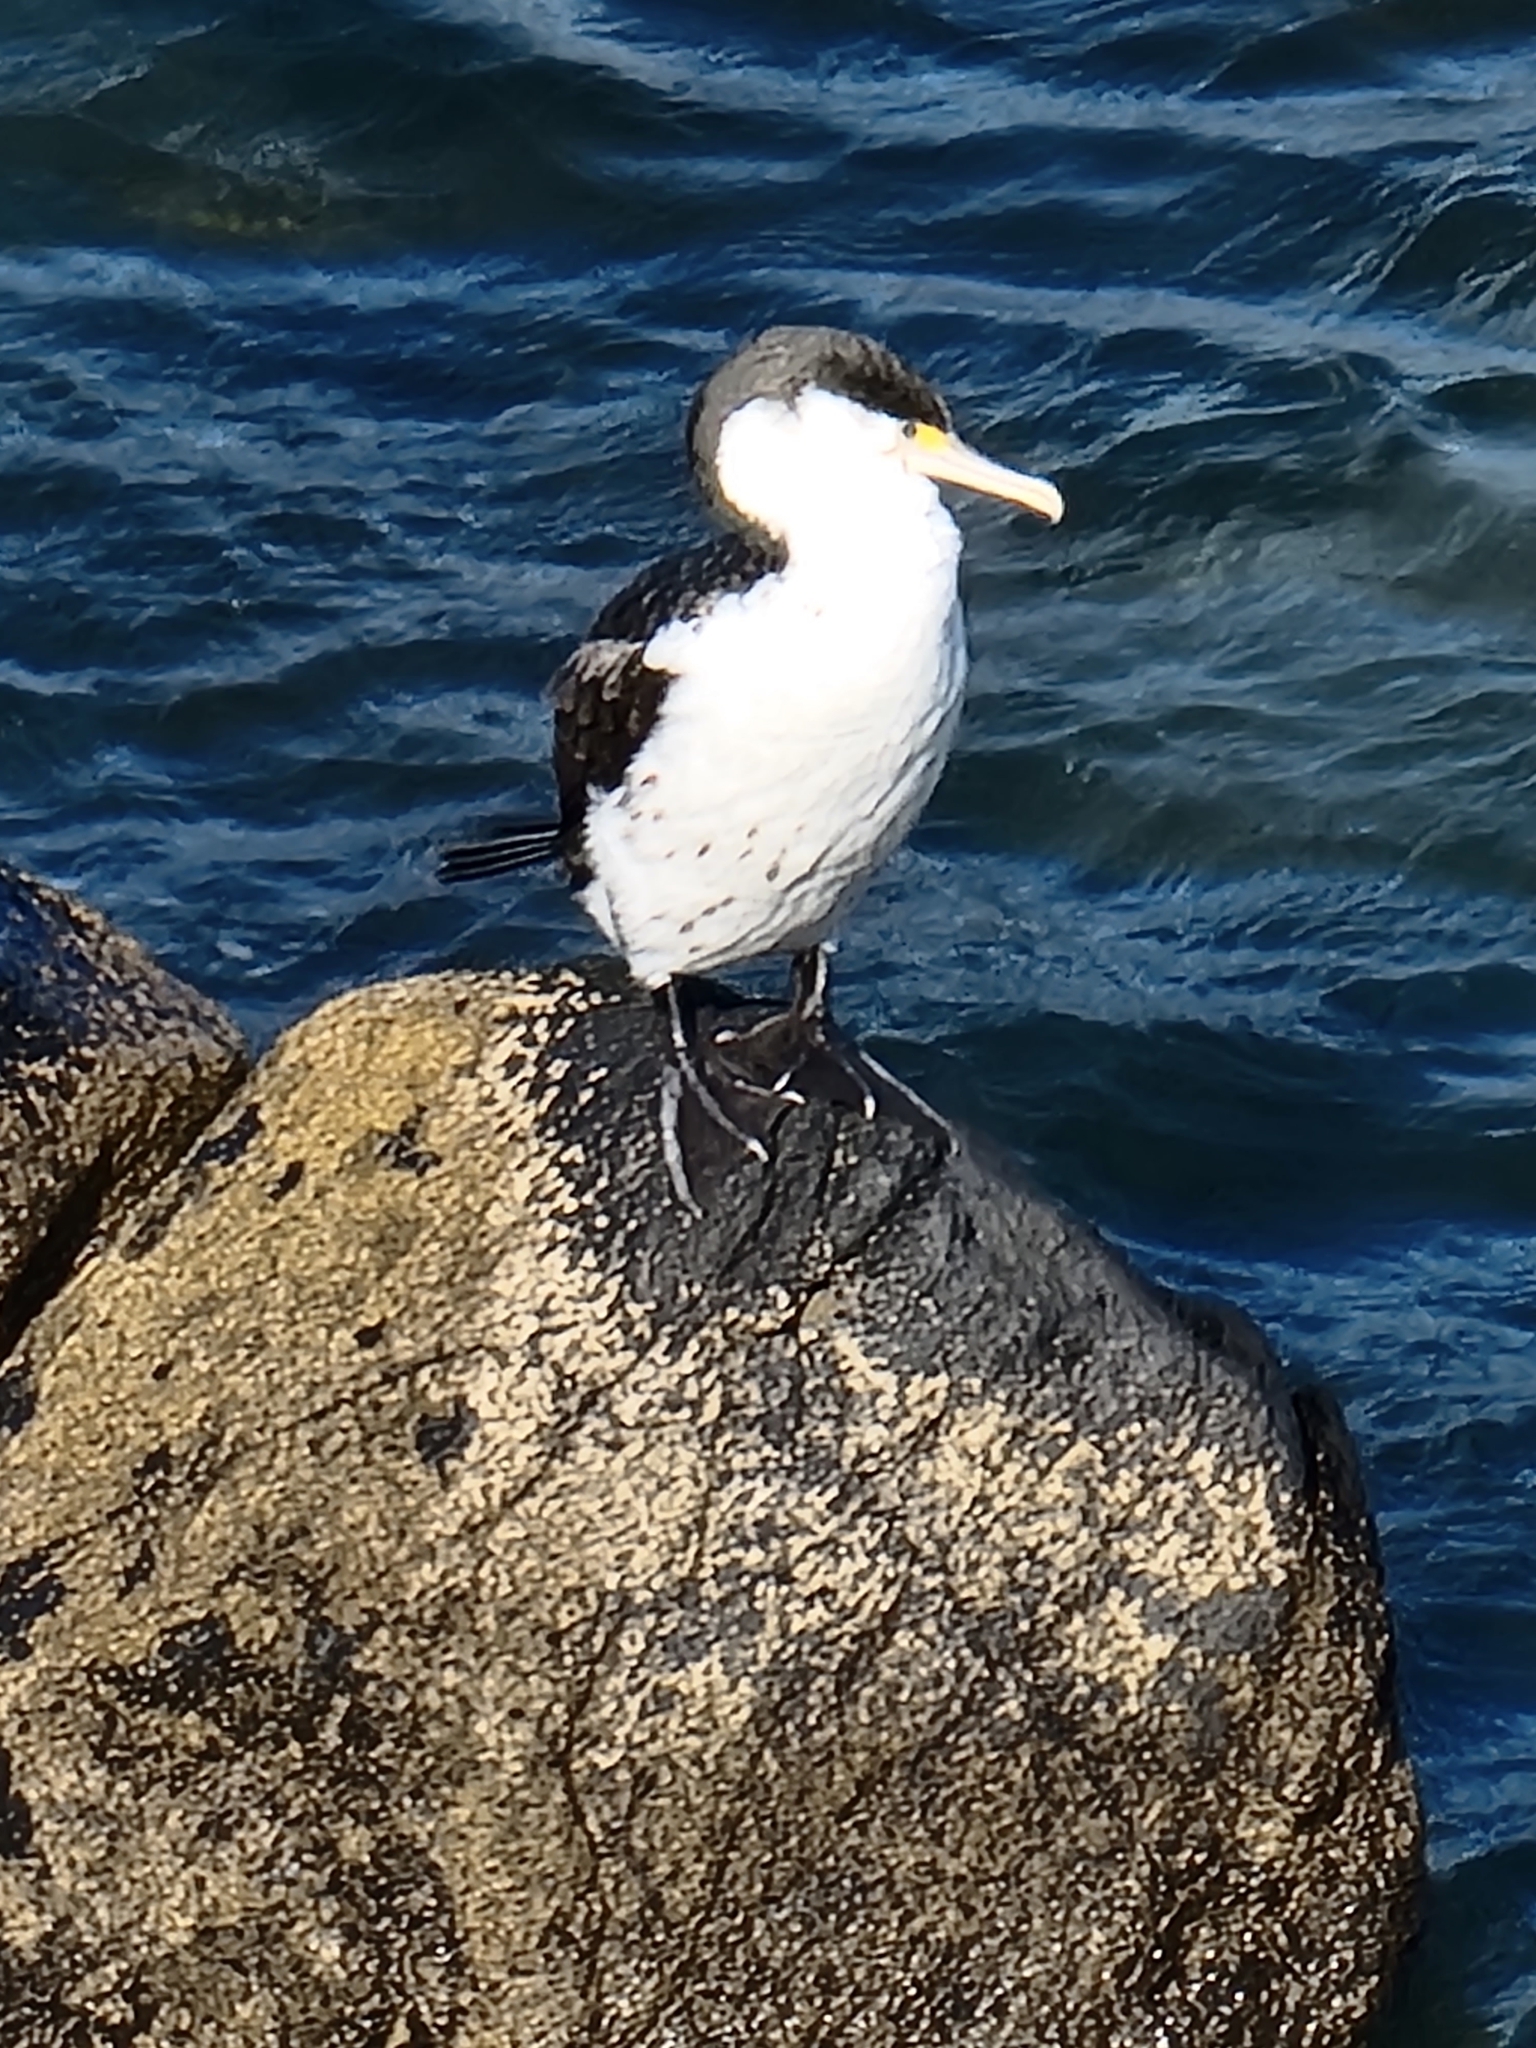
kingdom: Animalia
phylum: Chordata
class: Aves
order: Suliformes
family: Phalacrocoracidae
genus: Phalacrocorax
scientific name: Phalacrocorax varius
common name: Pied cormorant
